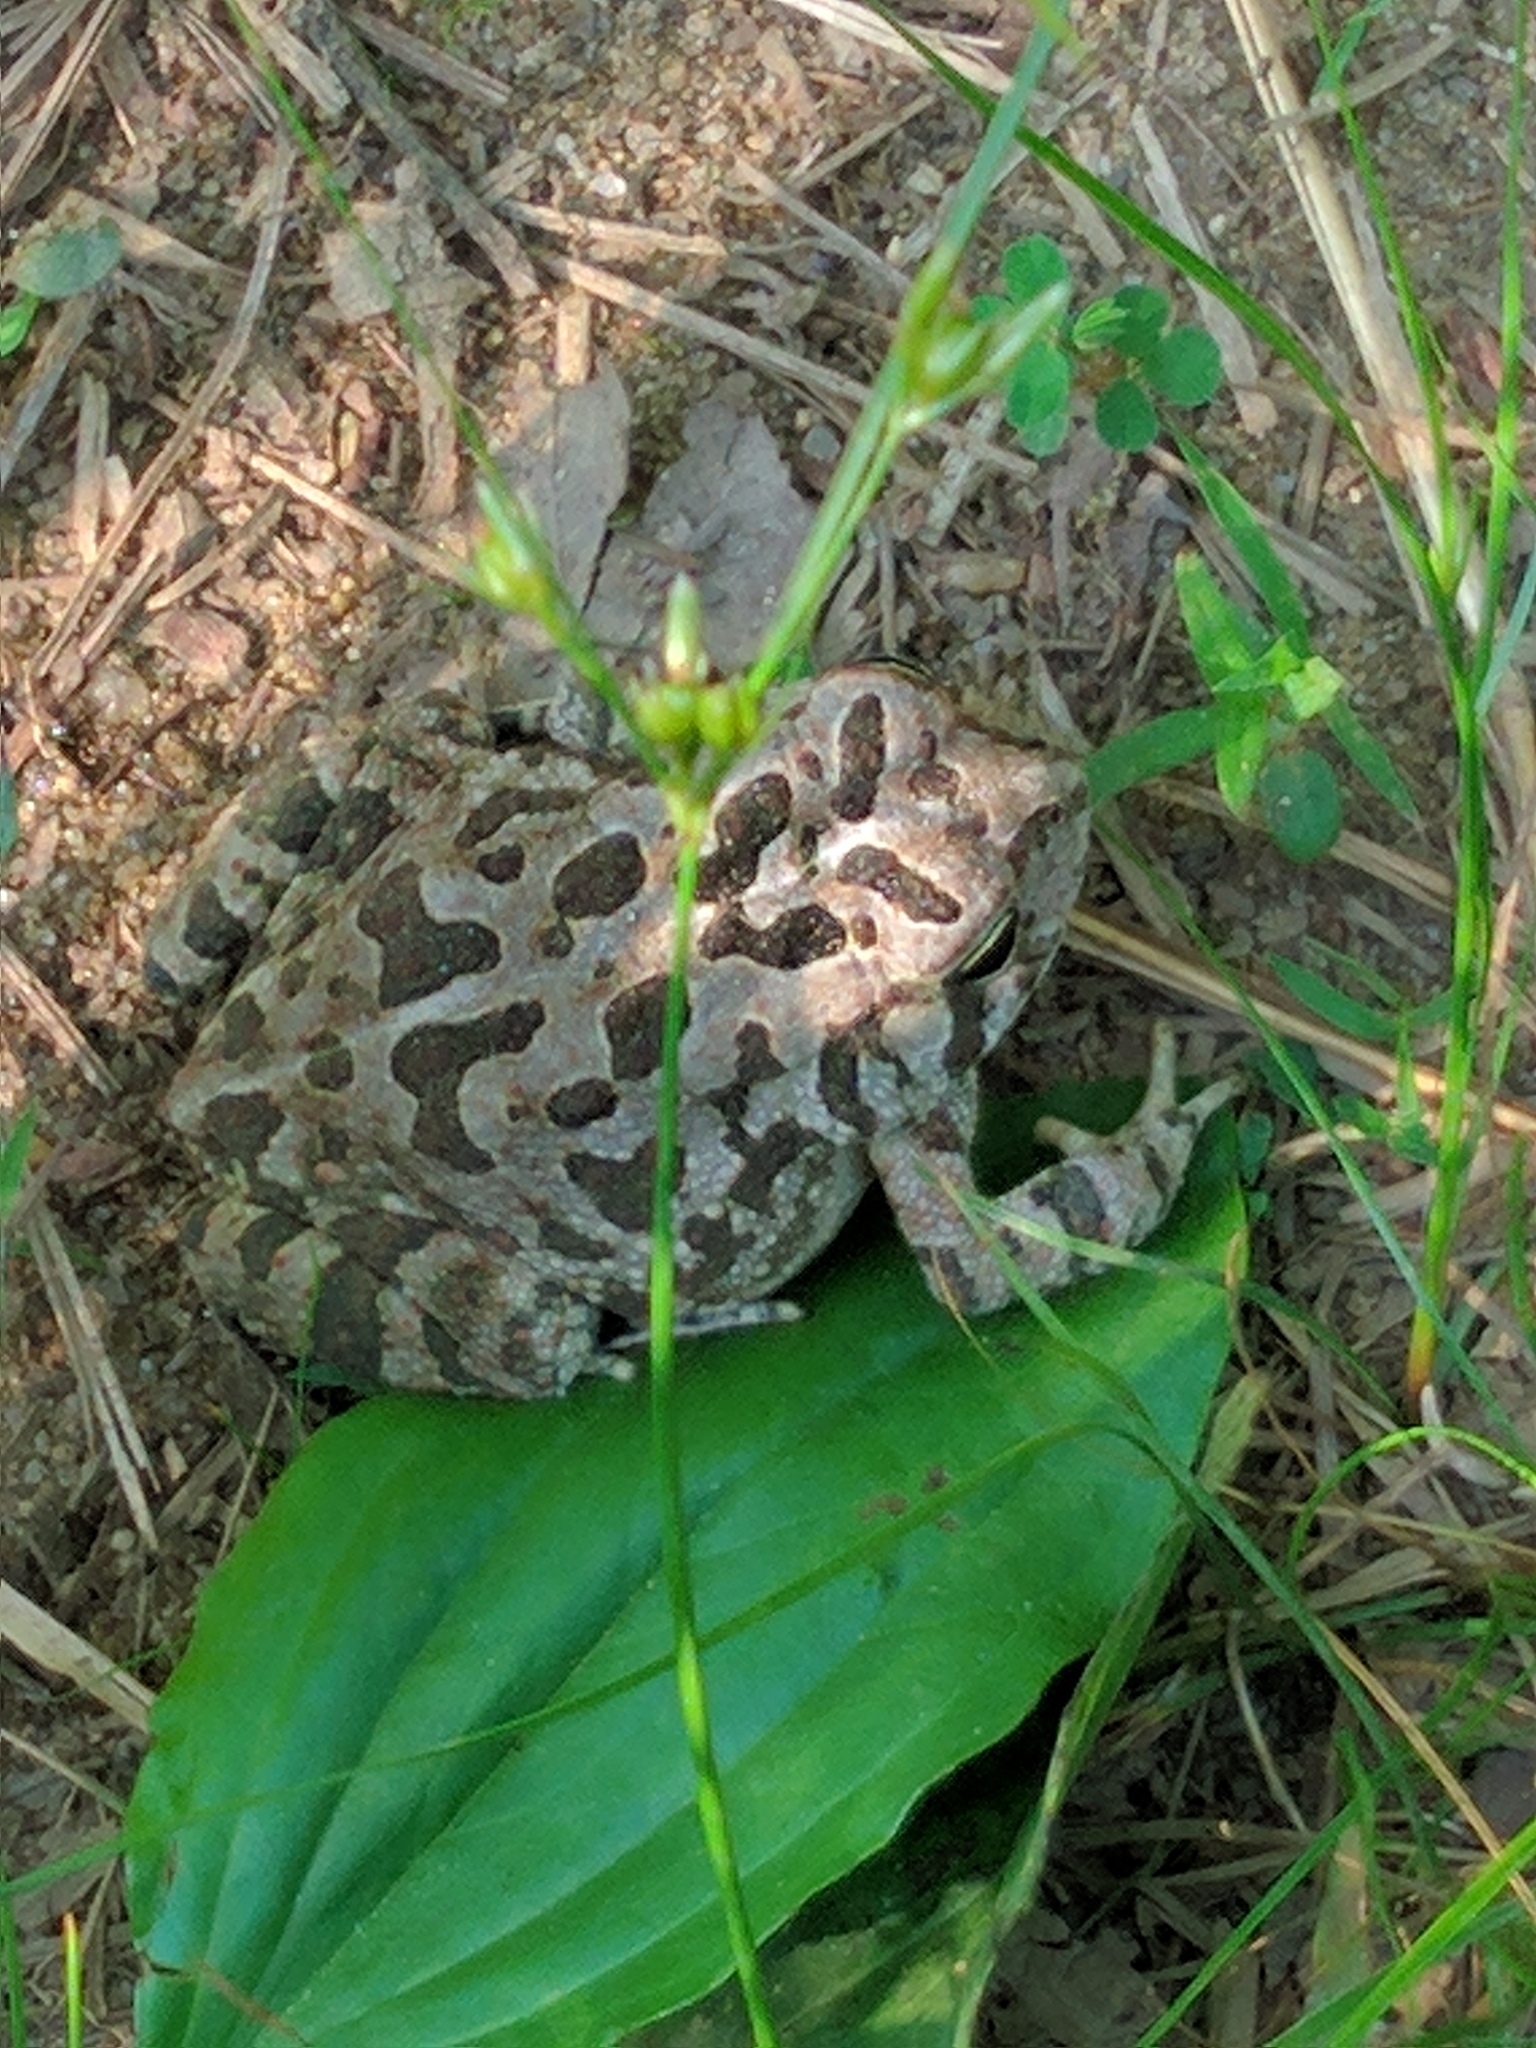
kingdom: Animalia
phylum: Chordata
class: Amphibia
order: Anura
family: Bufonidae
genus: Anaxyrus
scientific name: Anaxyrus fowleri
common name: Fowler's toad
